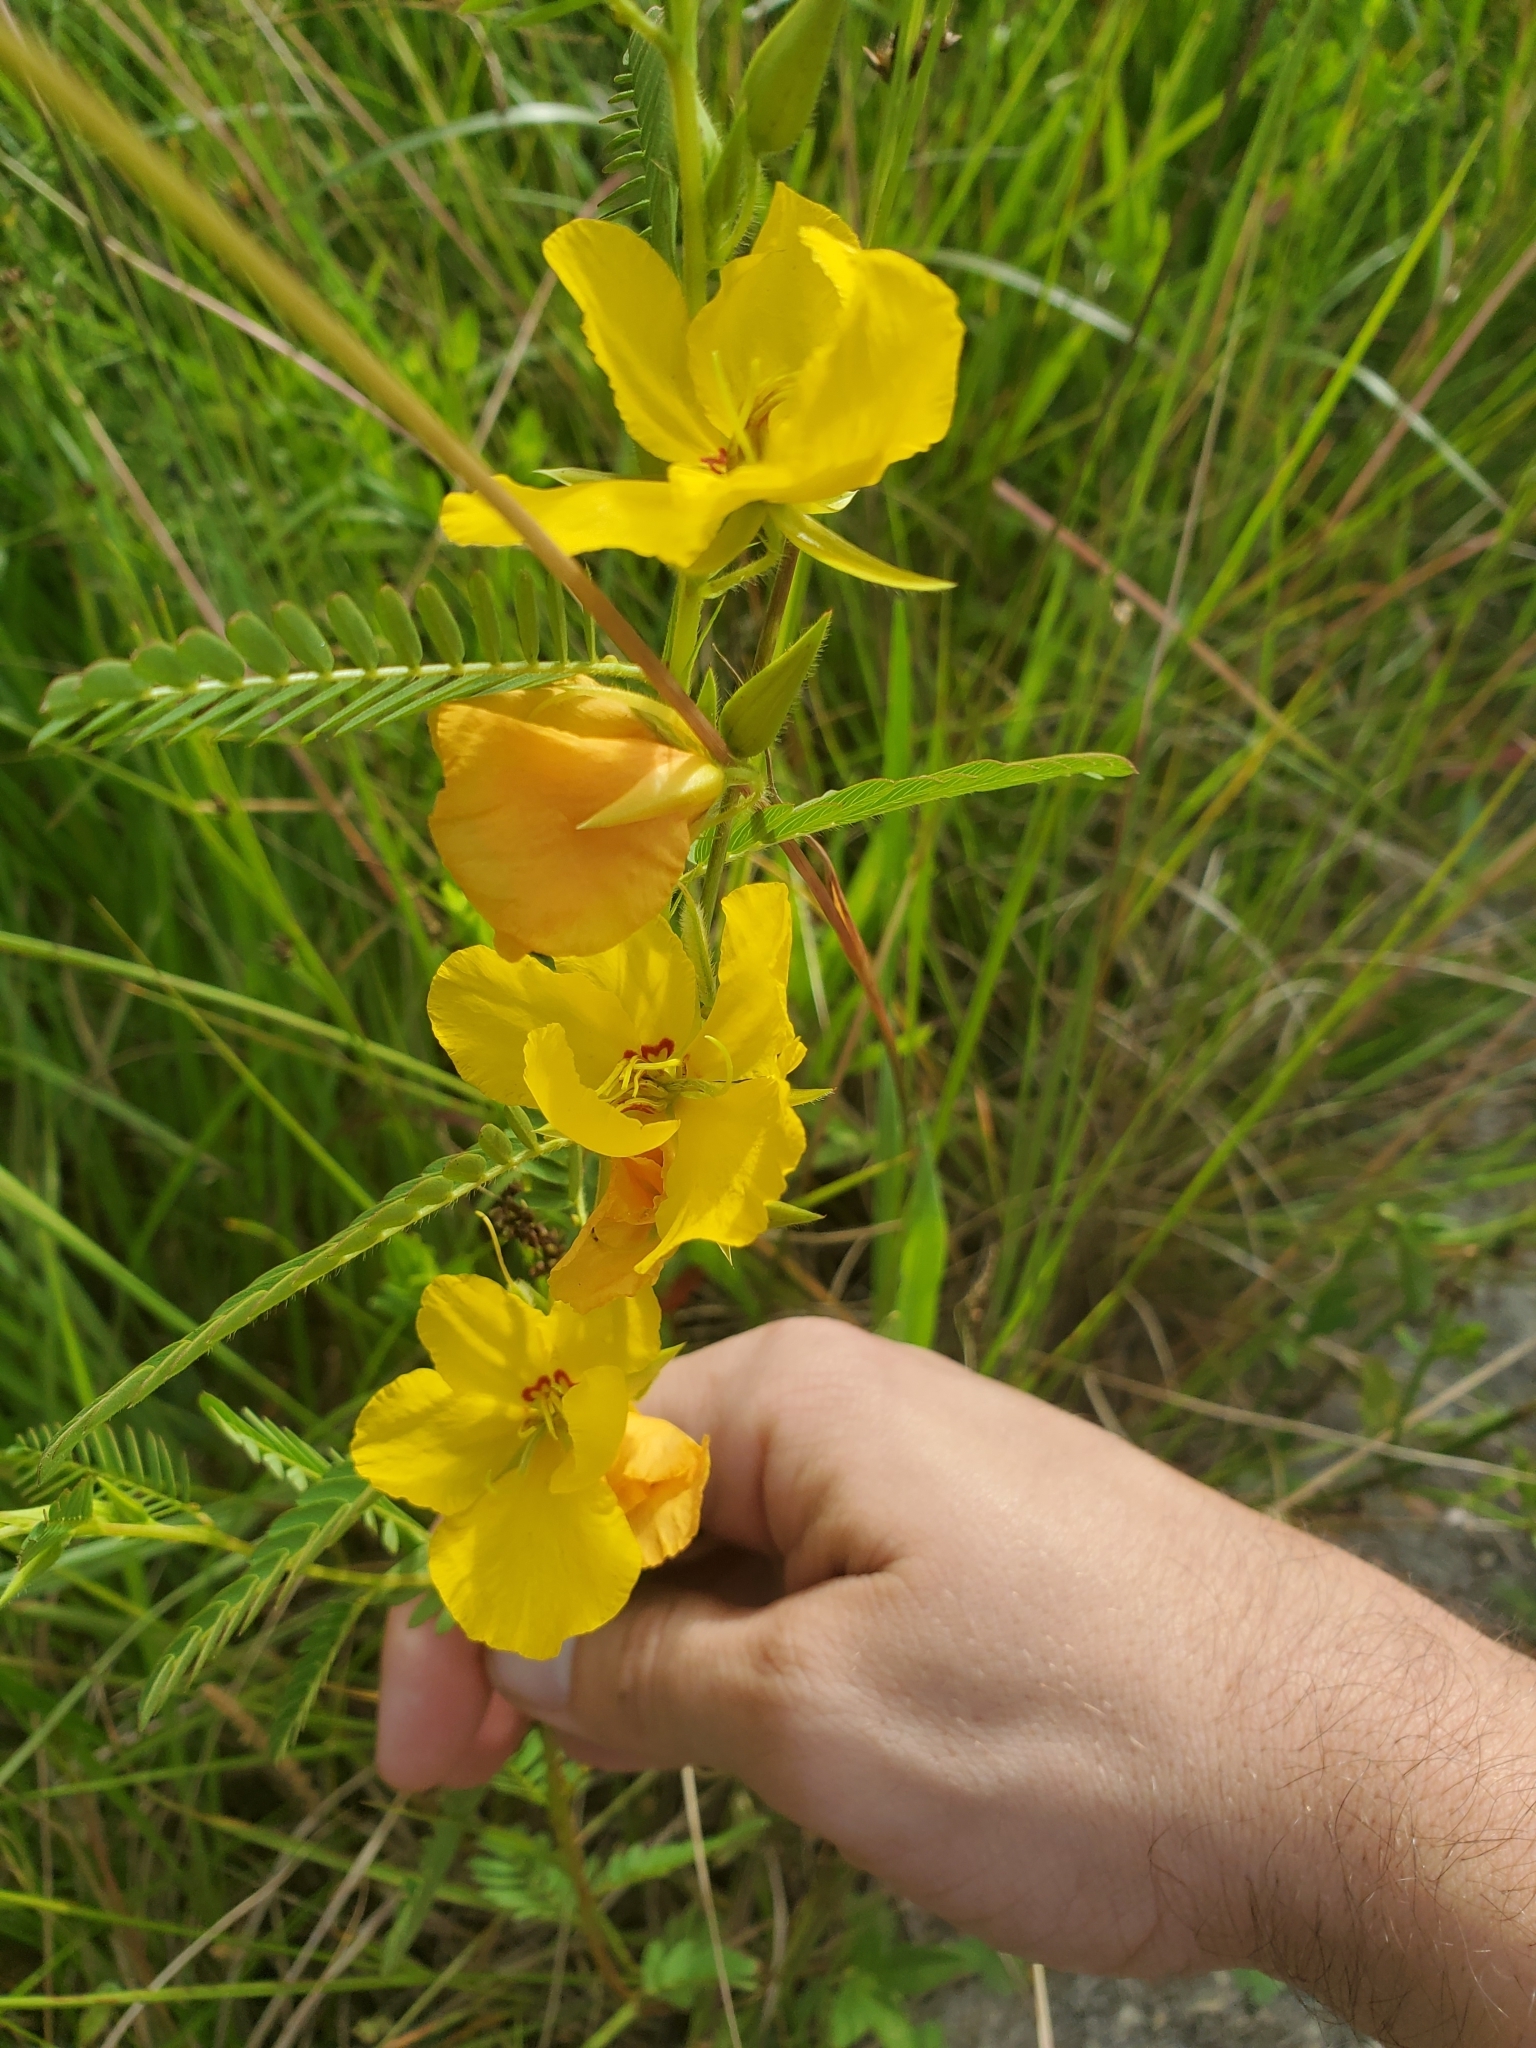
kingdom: Plantae
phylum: Tracheophyta
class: Magnoliopsida
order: Fabales
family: Fabaceae
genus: Chamaecrista
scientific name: Chamaecrista fasciculata
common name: Golden cassia
